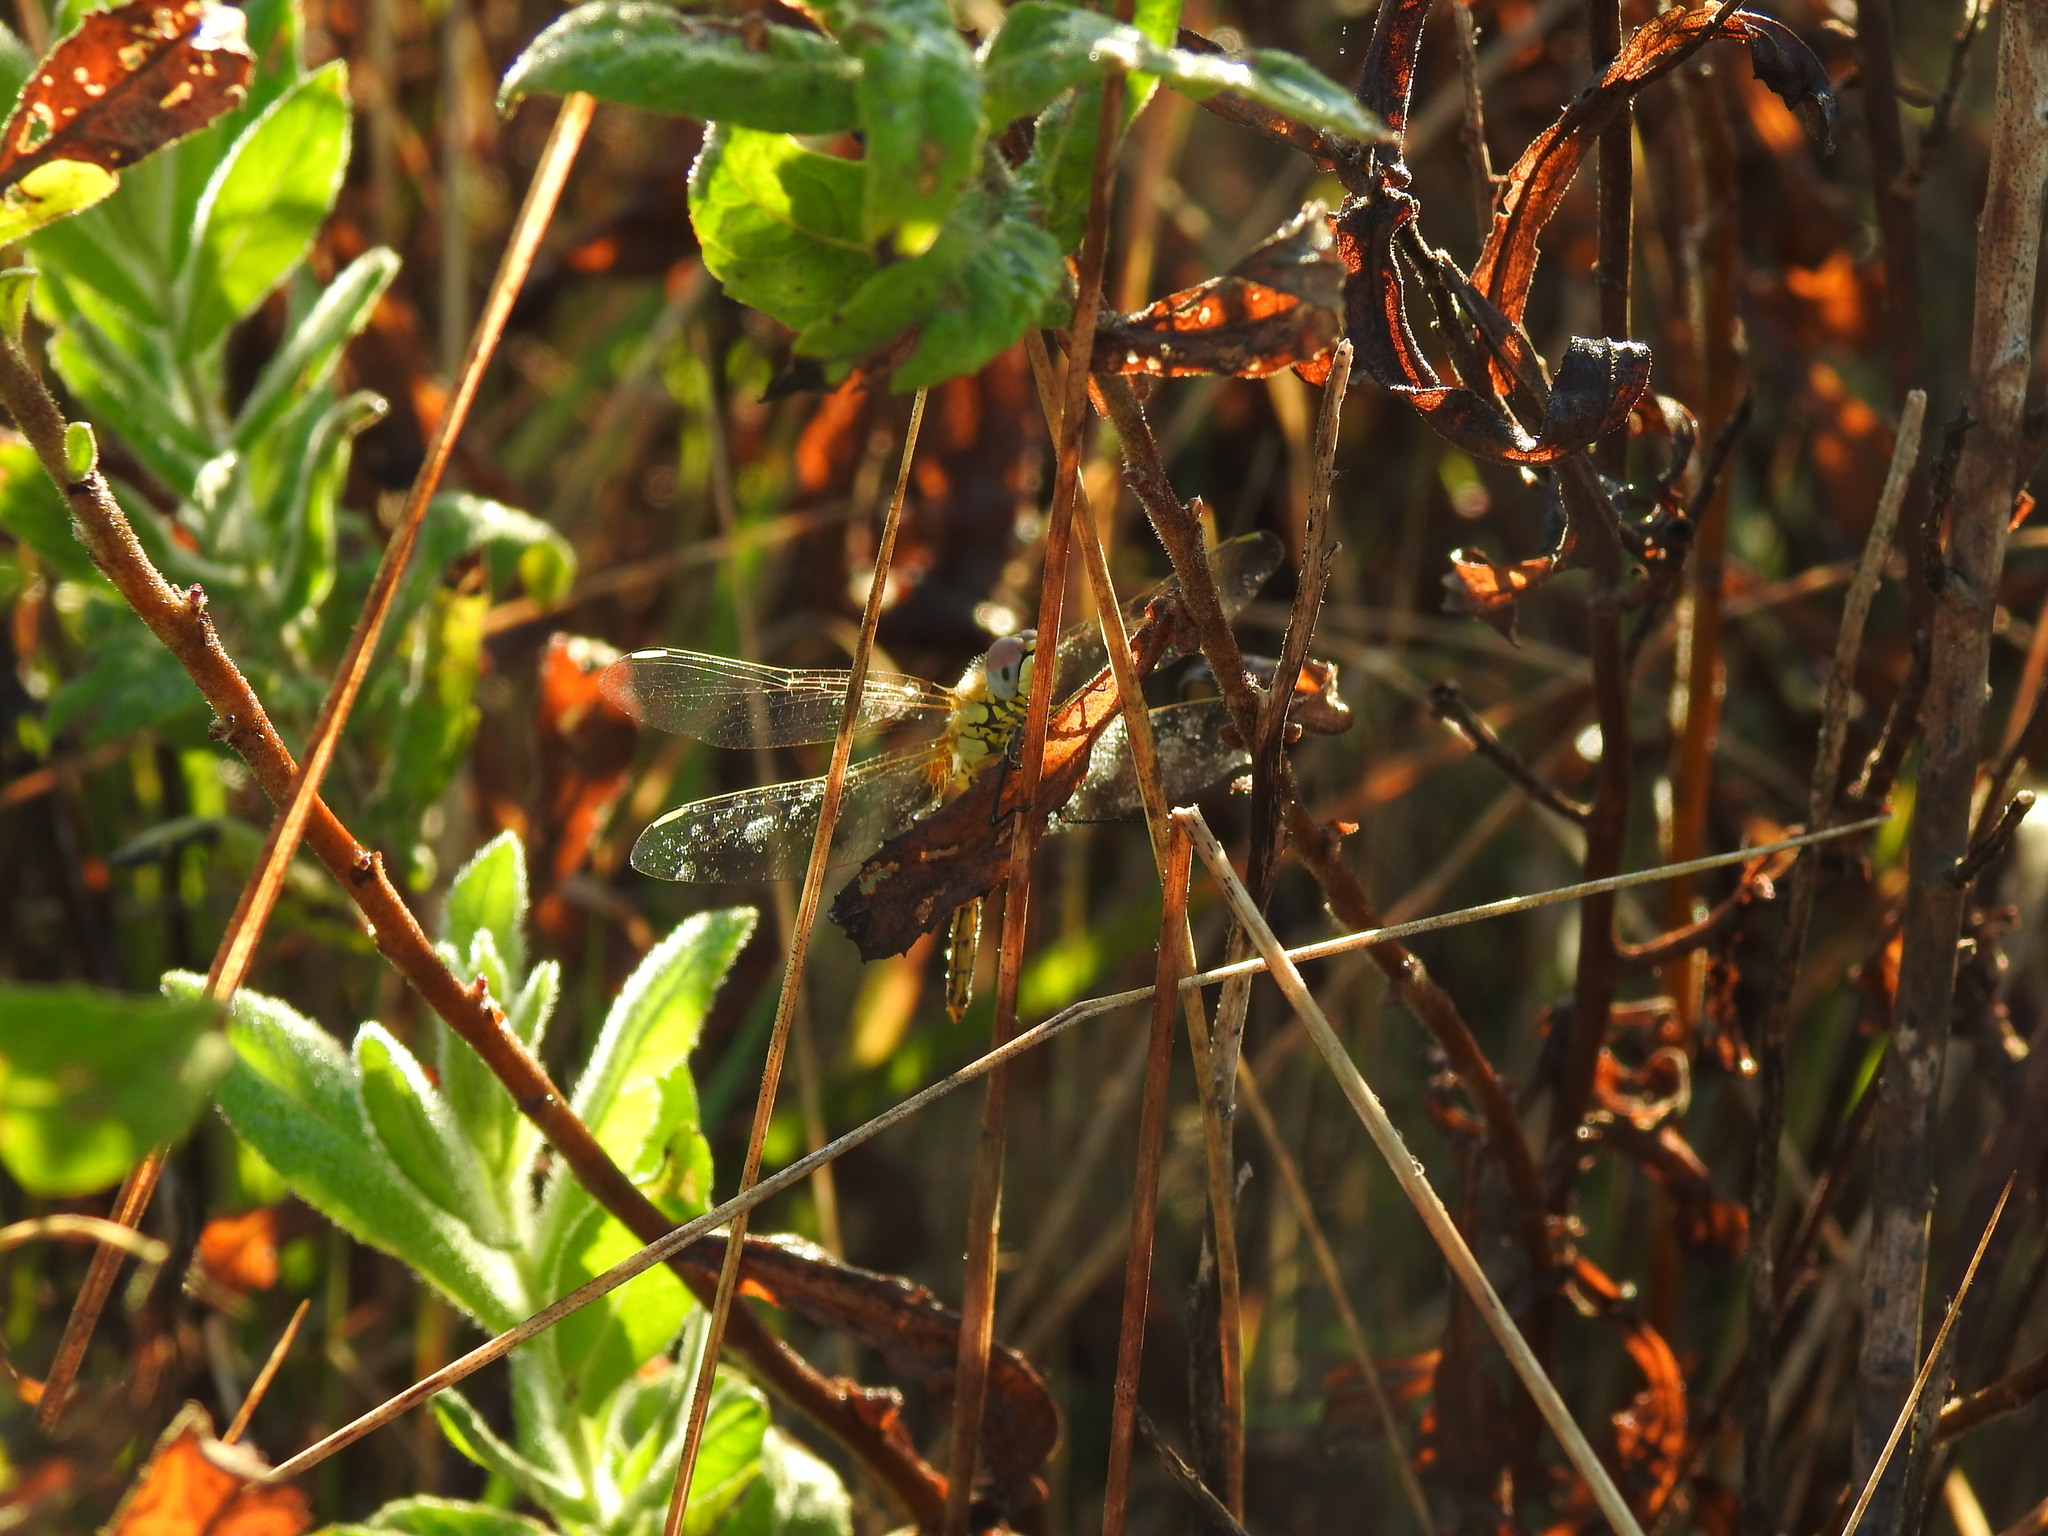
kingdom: Animalia
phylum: Arthropoda
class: Insecta
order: Odonata
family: Libellulidae
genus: Sympetrum
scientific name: Sympetrum fonscolombii
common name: Red-veined darter
